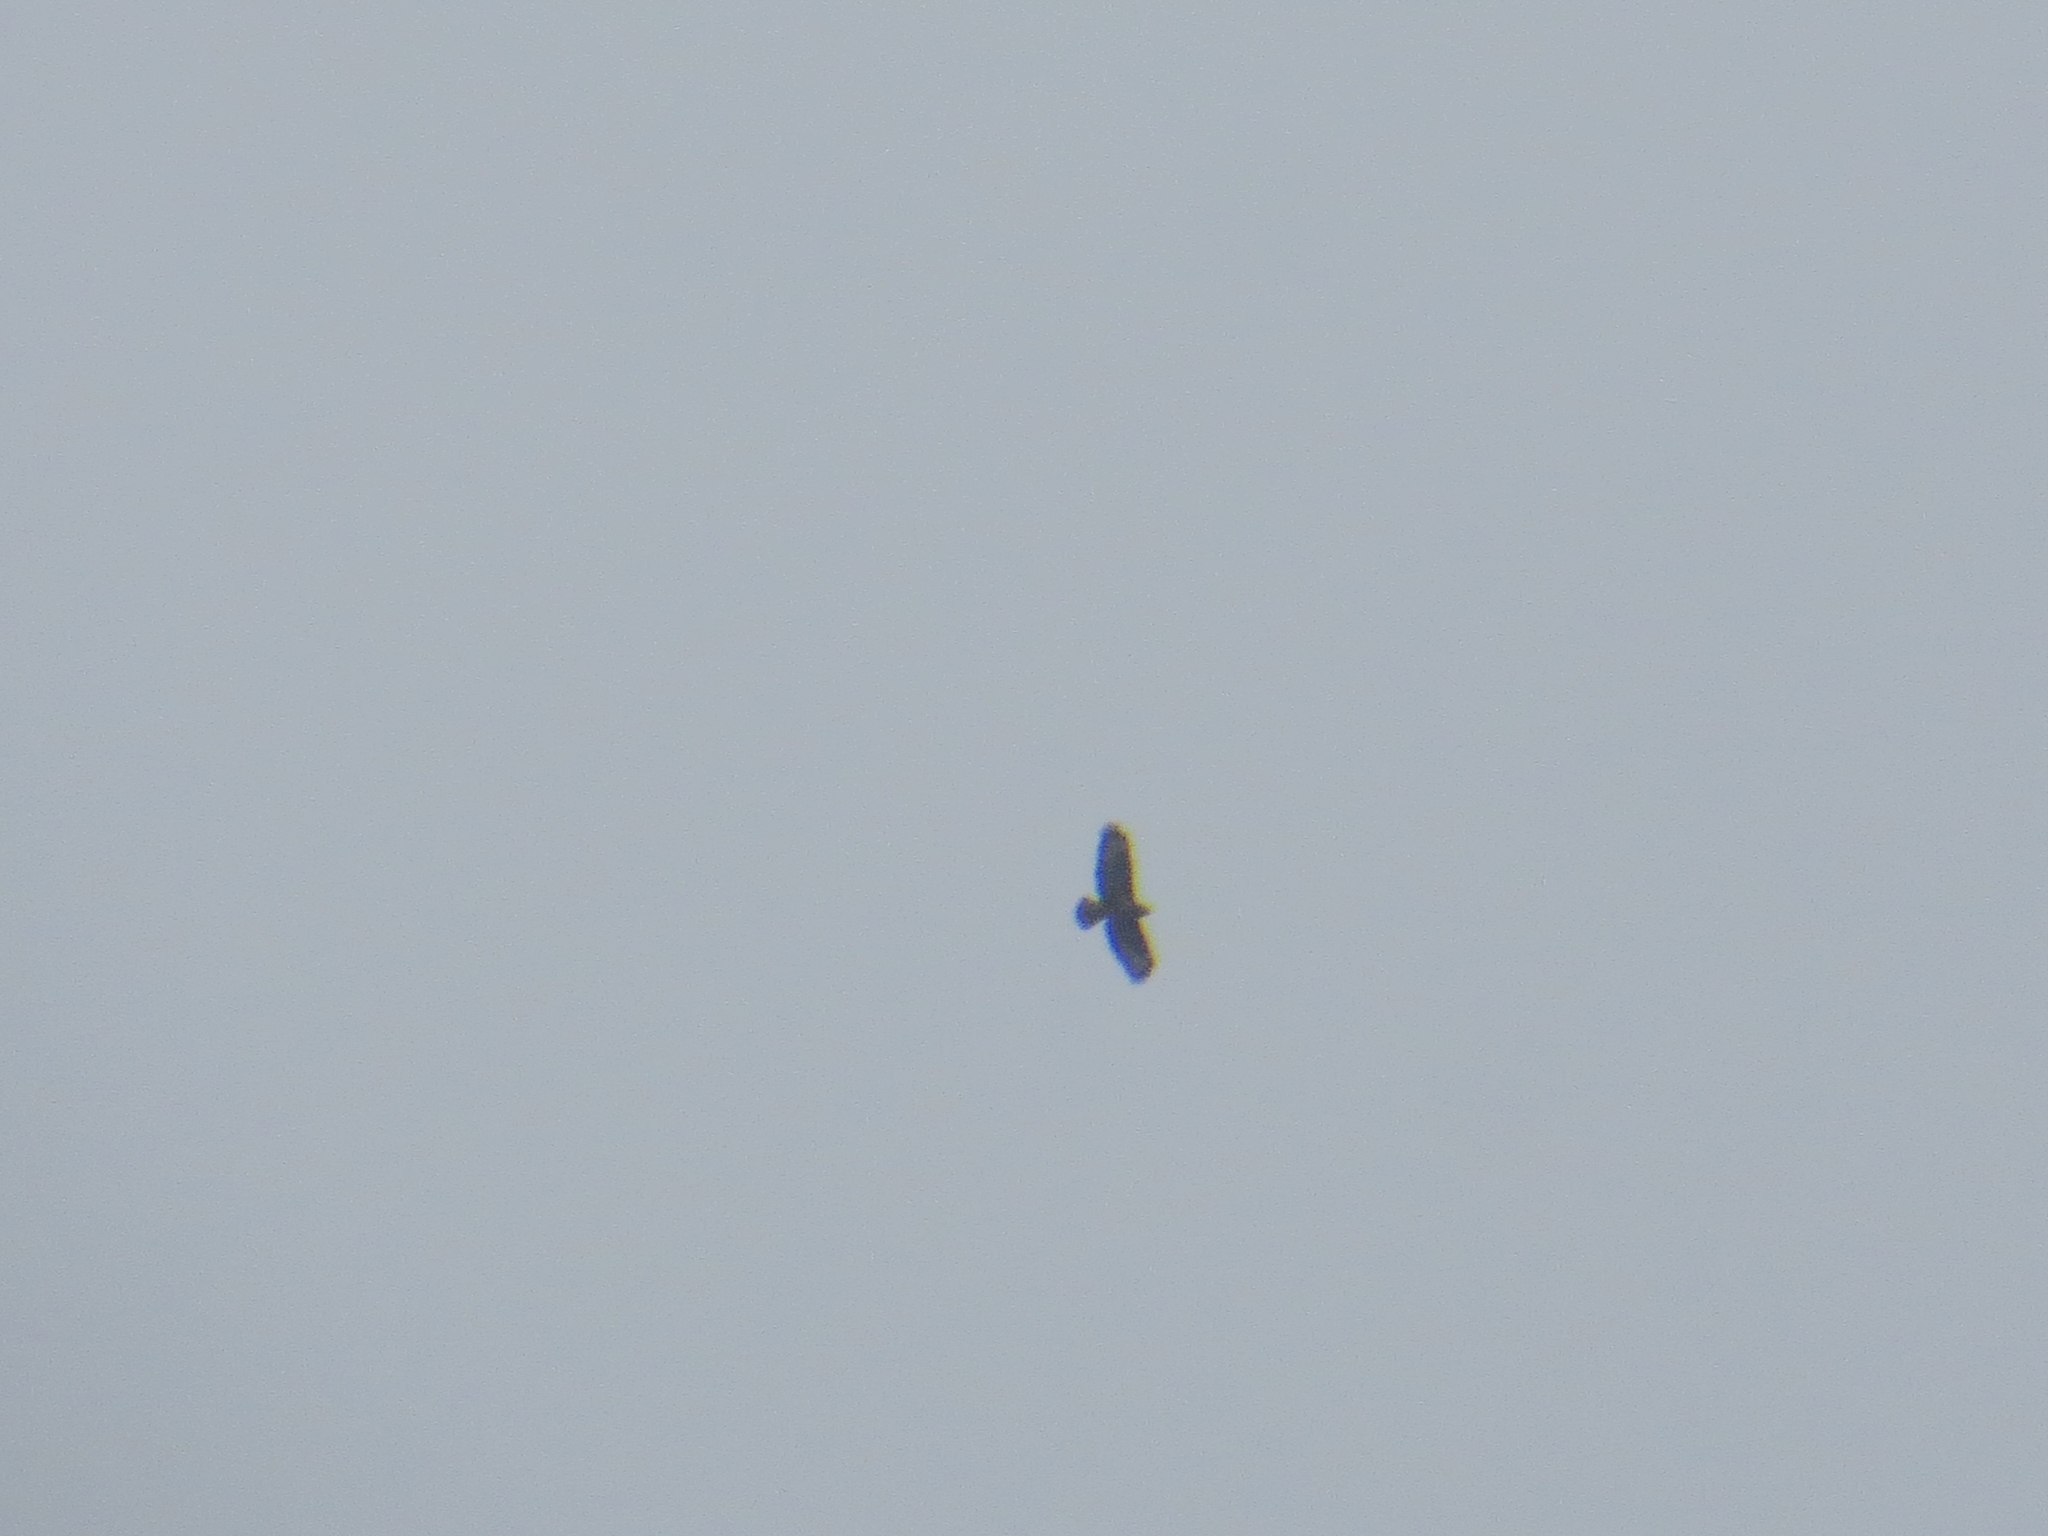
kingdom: Animalia
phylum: Chordata
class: Aves
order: Accipitriformes
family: Accipitridae
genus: Buteo
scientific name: Buteo buteo
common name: Common buzzard
